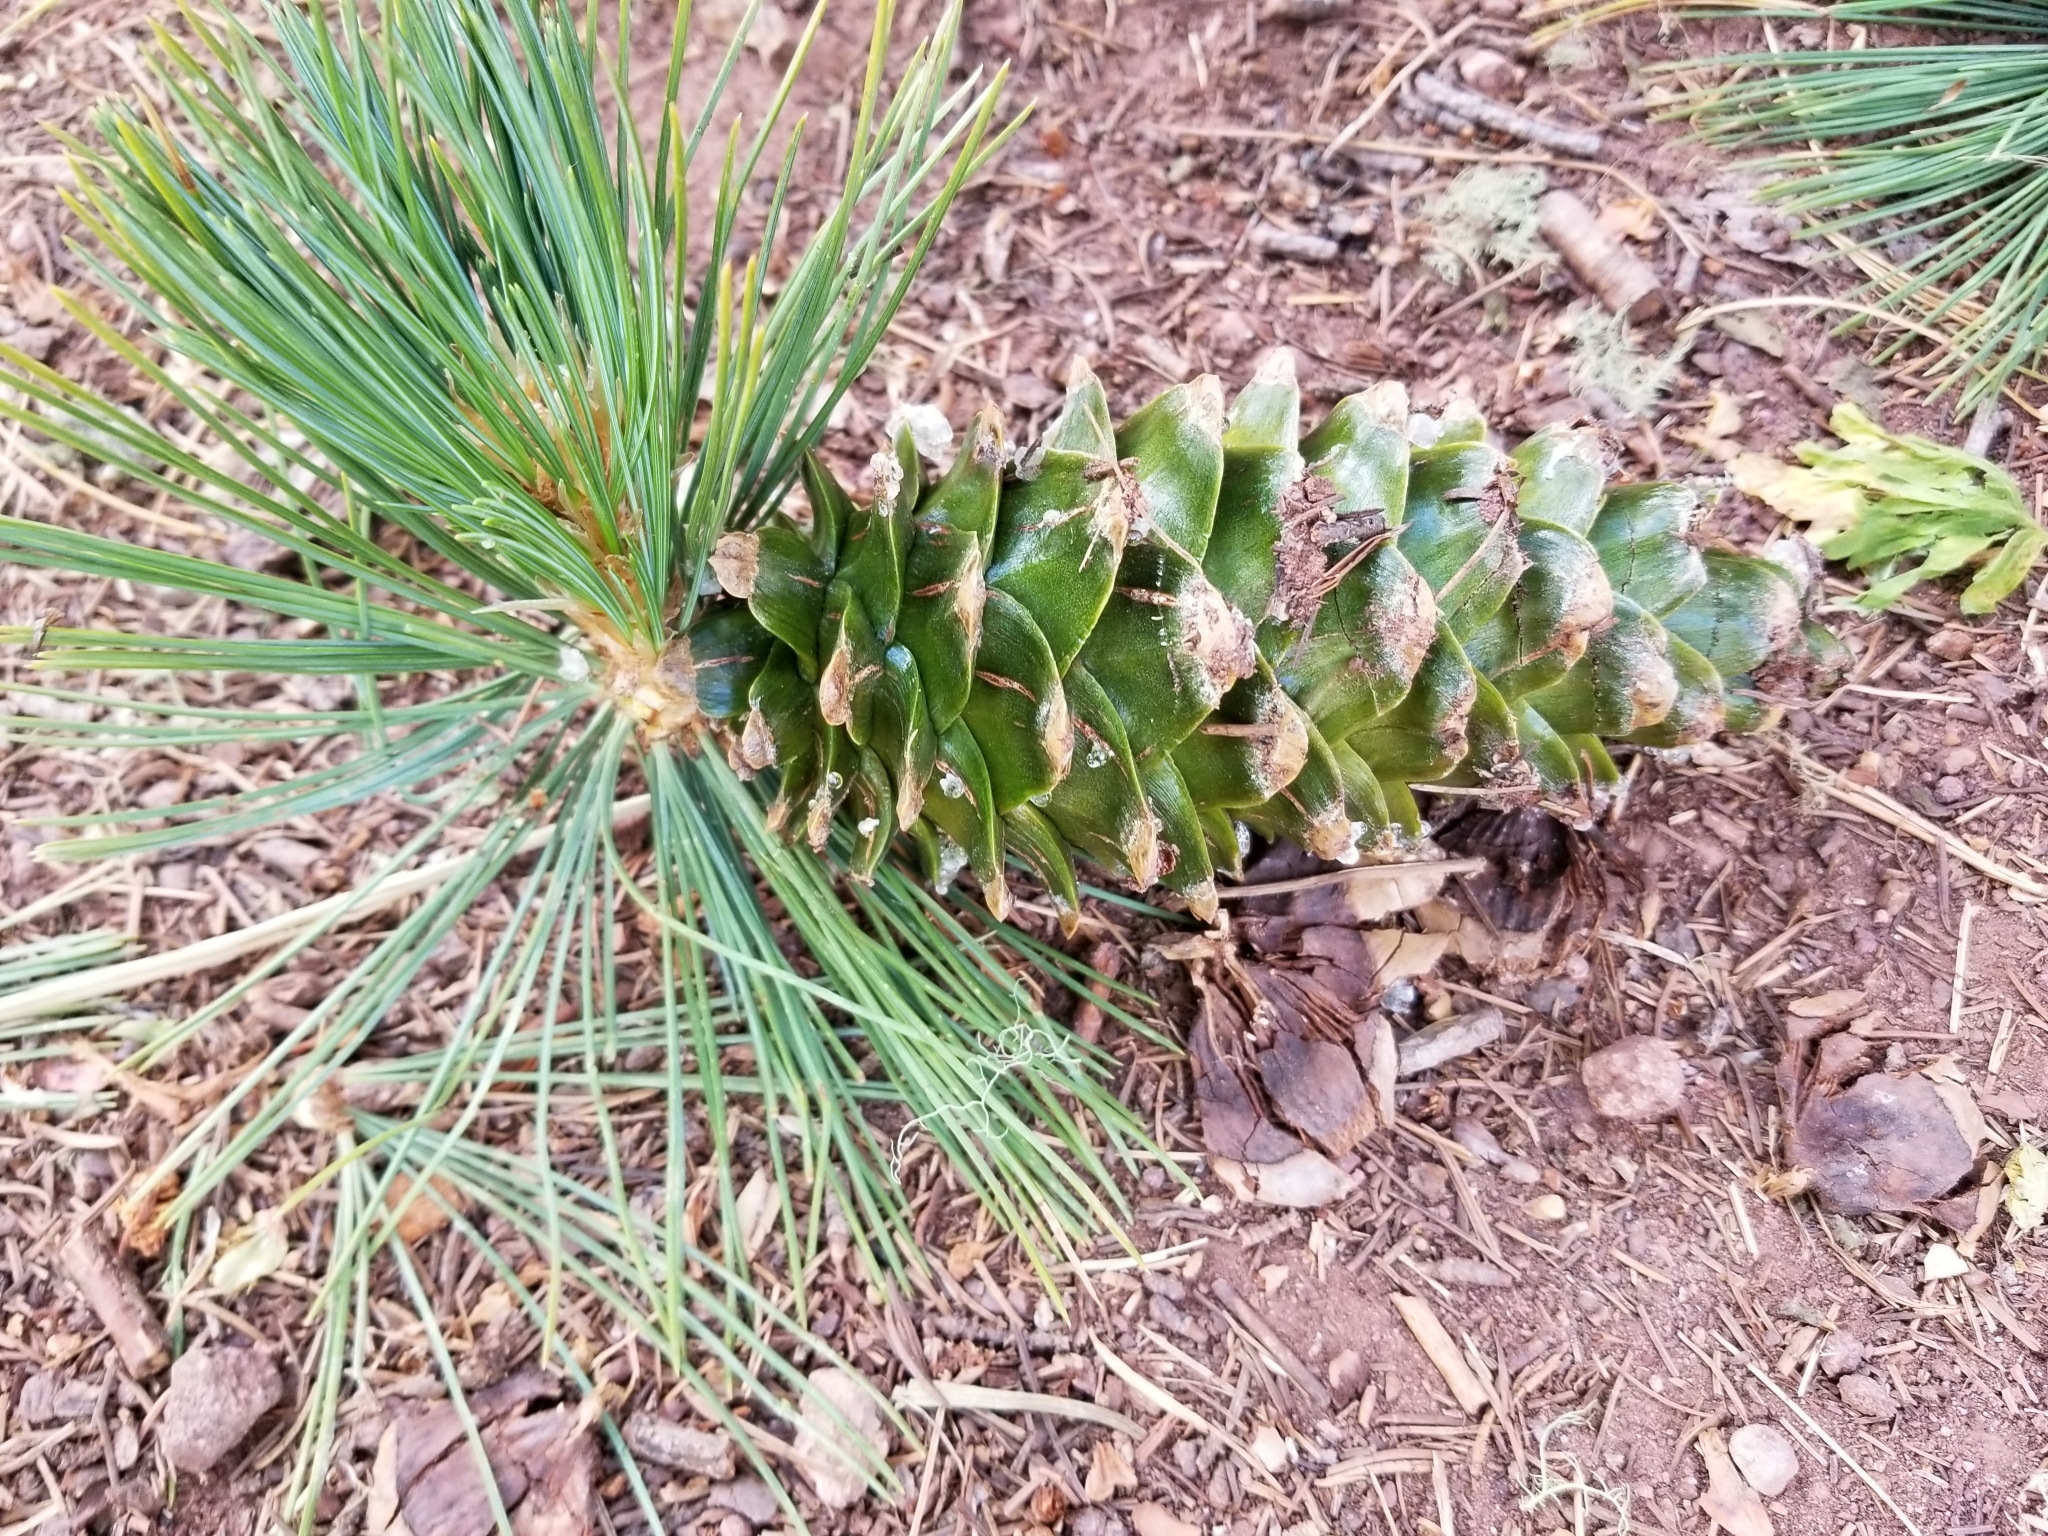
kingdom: Plantae
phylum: Tracheophyta
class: Pinopsida
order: Pinales
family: Pinaceae
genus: Pinus
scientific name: Pinus flexilis
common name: Limber pine
